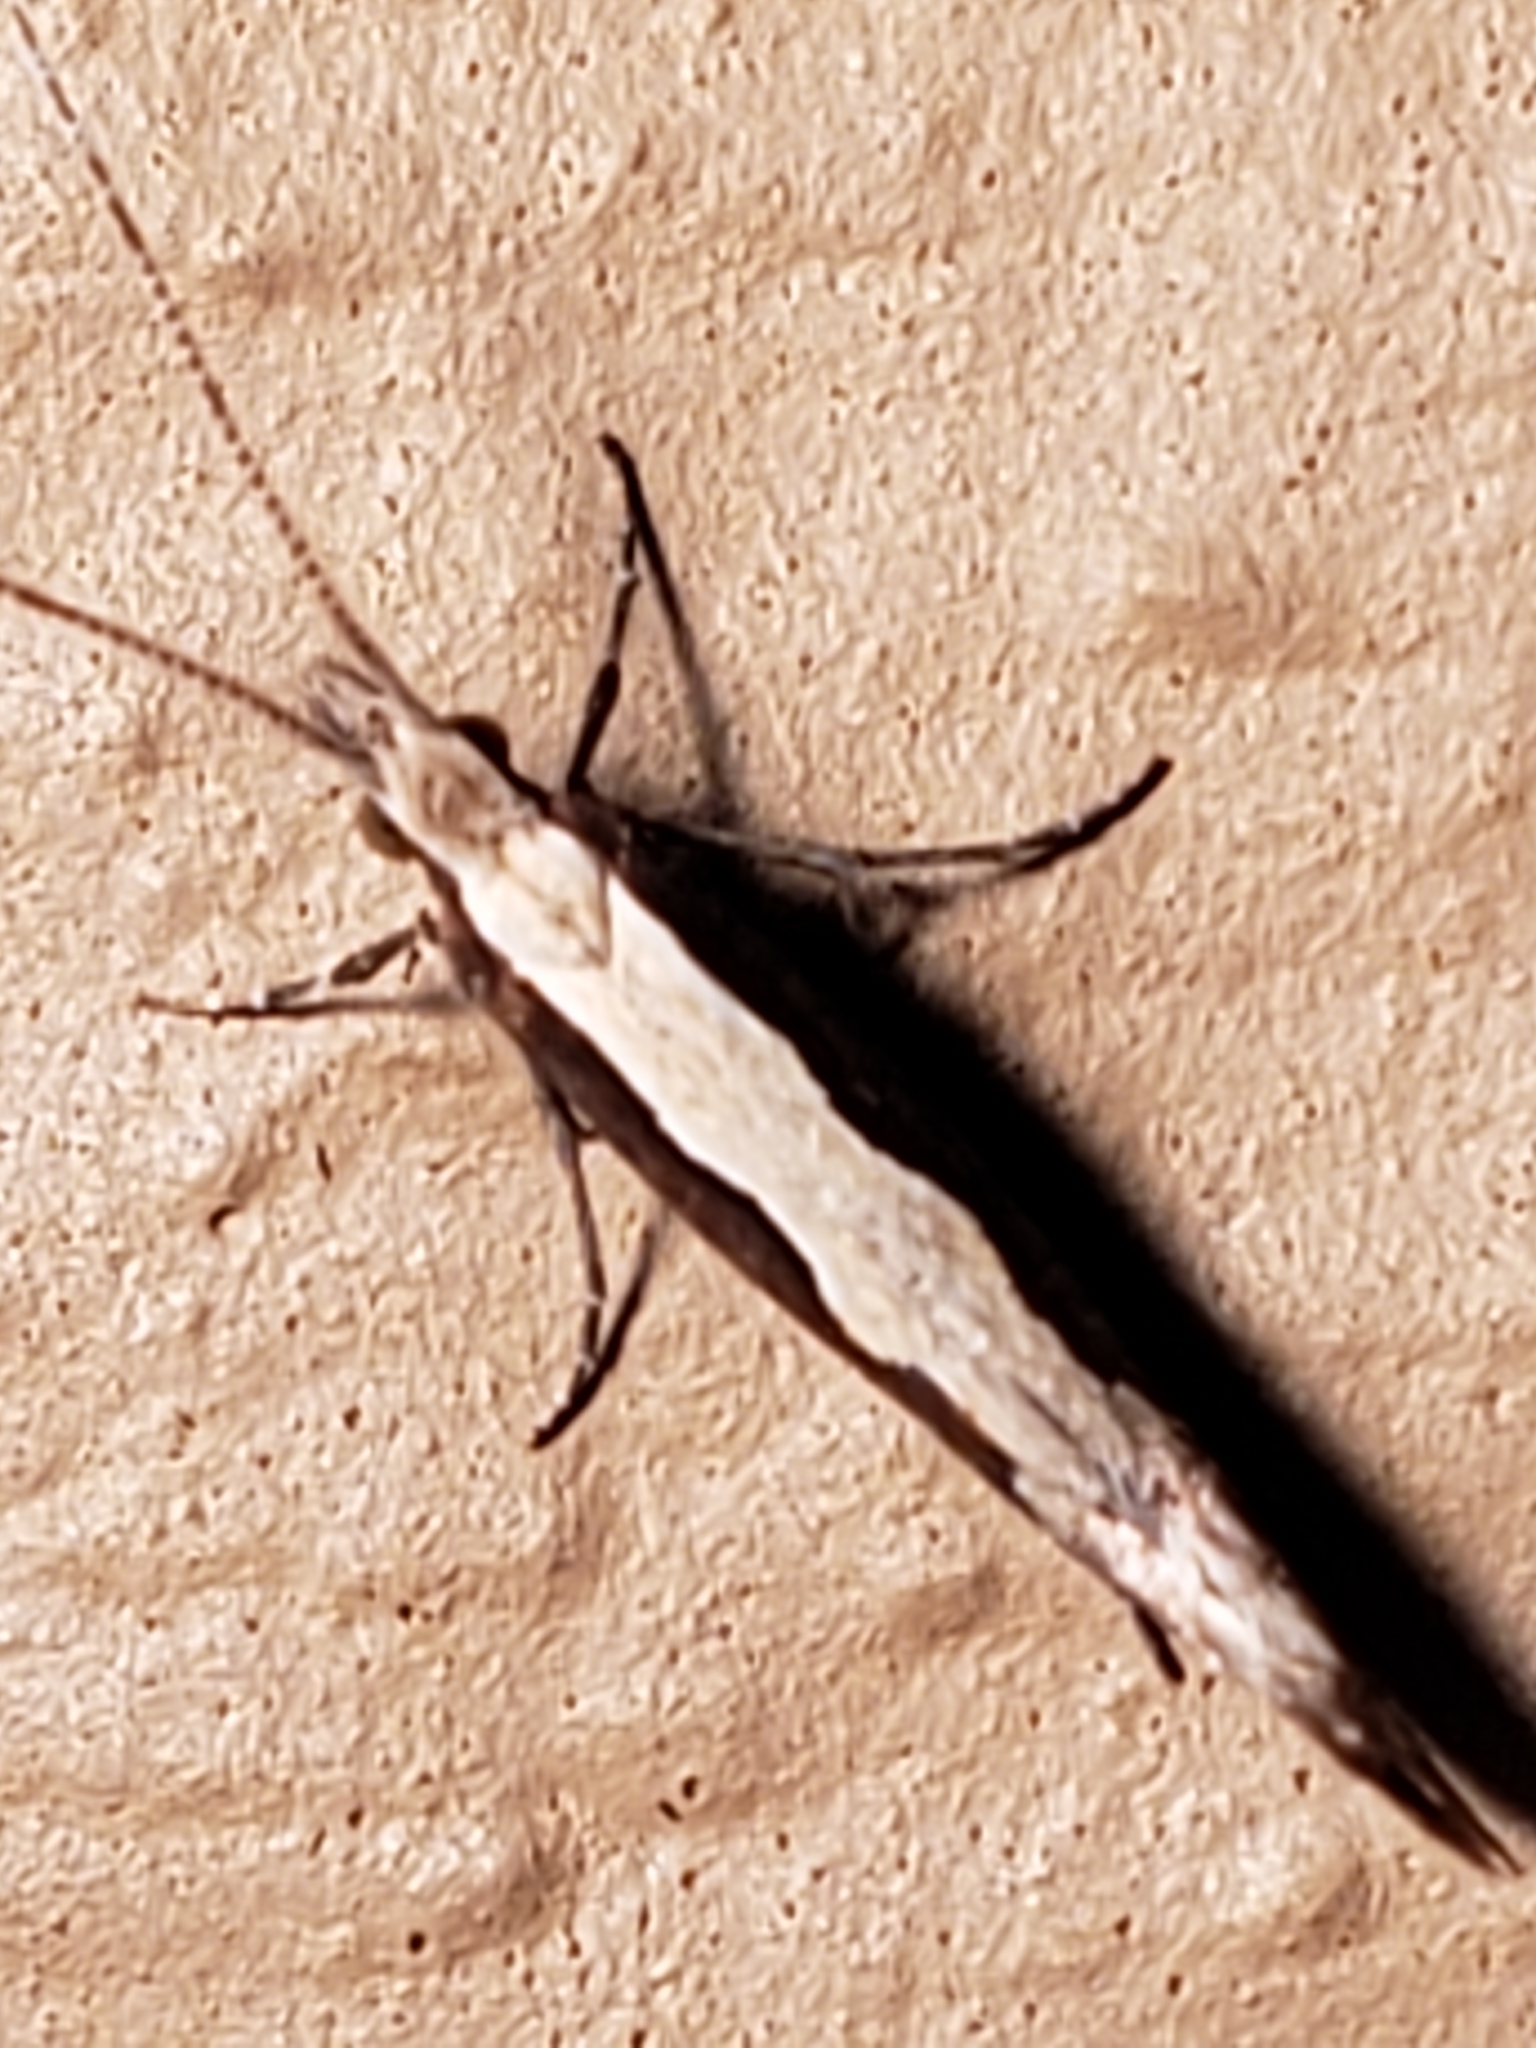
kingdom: Animalia
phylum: Arthropoda
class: Insecta
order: Lepidoptera
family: Plutellidae
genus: Plutella
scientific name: Plutella xylostella
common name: Diamond-back moth
